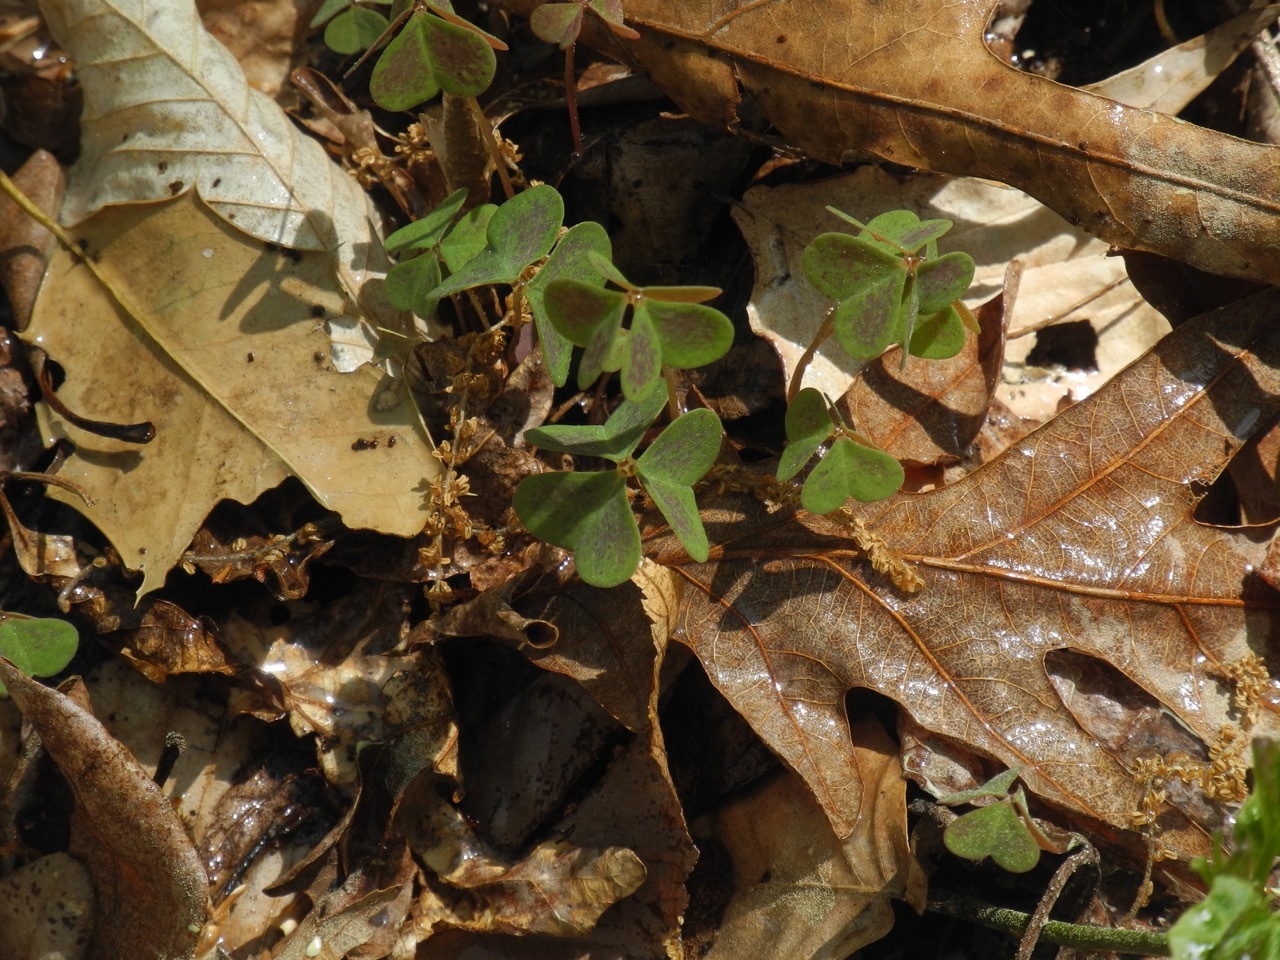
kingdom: Plantae
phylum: Tracheophyta
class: Magnoliopsida
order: Oxalidales
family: Oxalidaceae
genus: Oxalis
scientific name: Oxalis violacea
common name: Violet wood-sorrel
